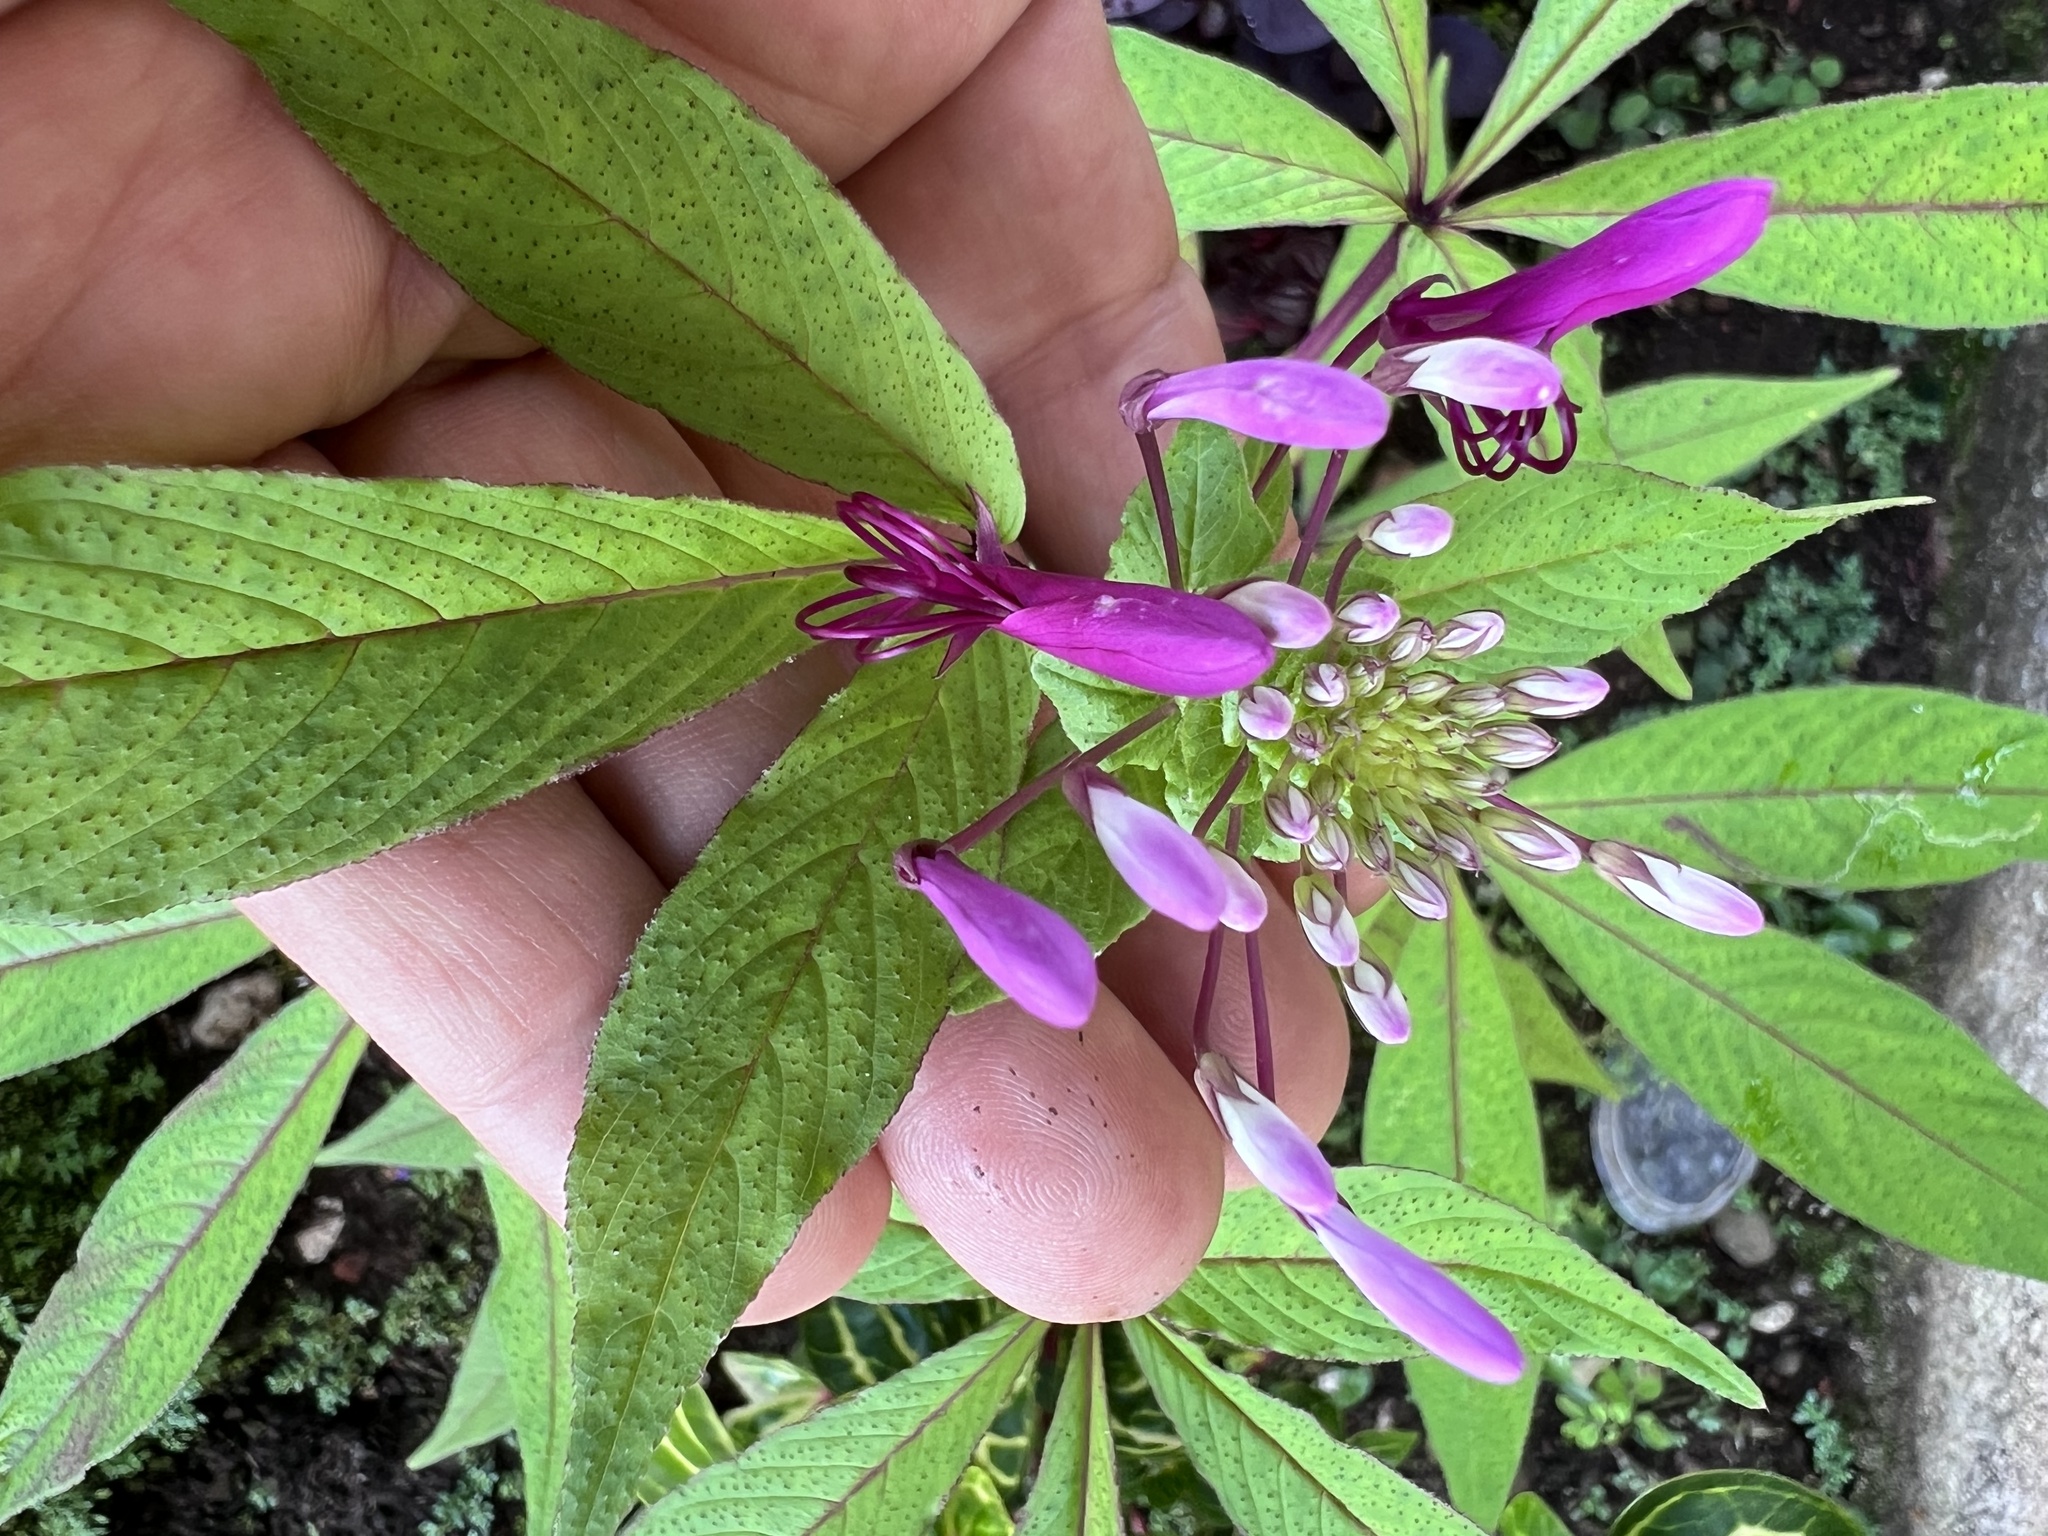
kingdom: Plantae
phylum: Tracheophyta
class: Magnoliopsida
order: Brassicales
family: Cleomaceae
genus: Tarenaya
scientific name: Tarenaya houtteana
